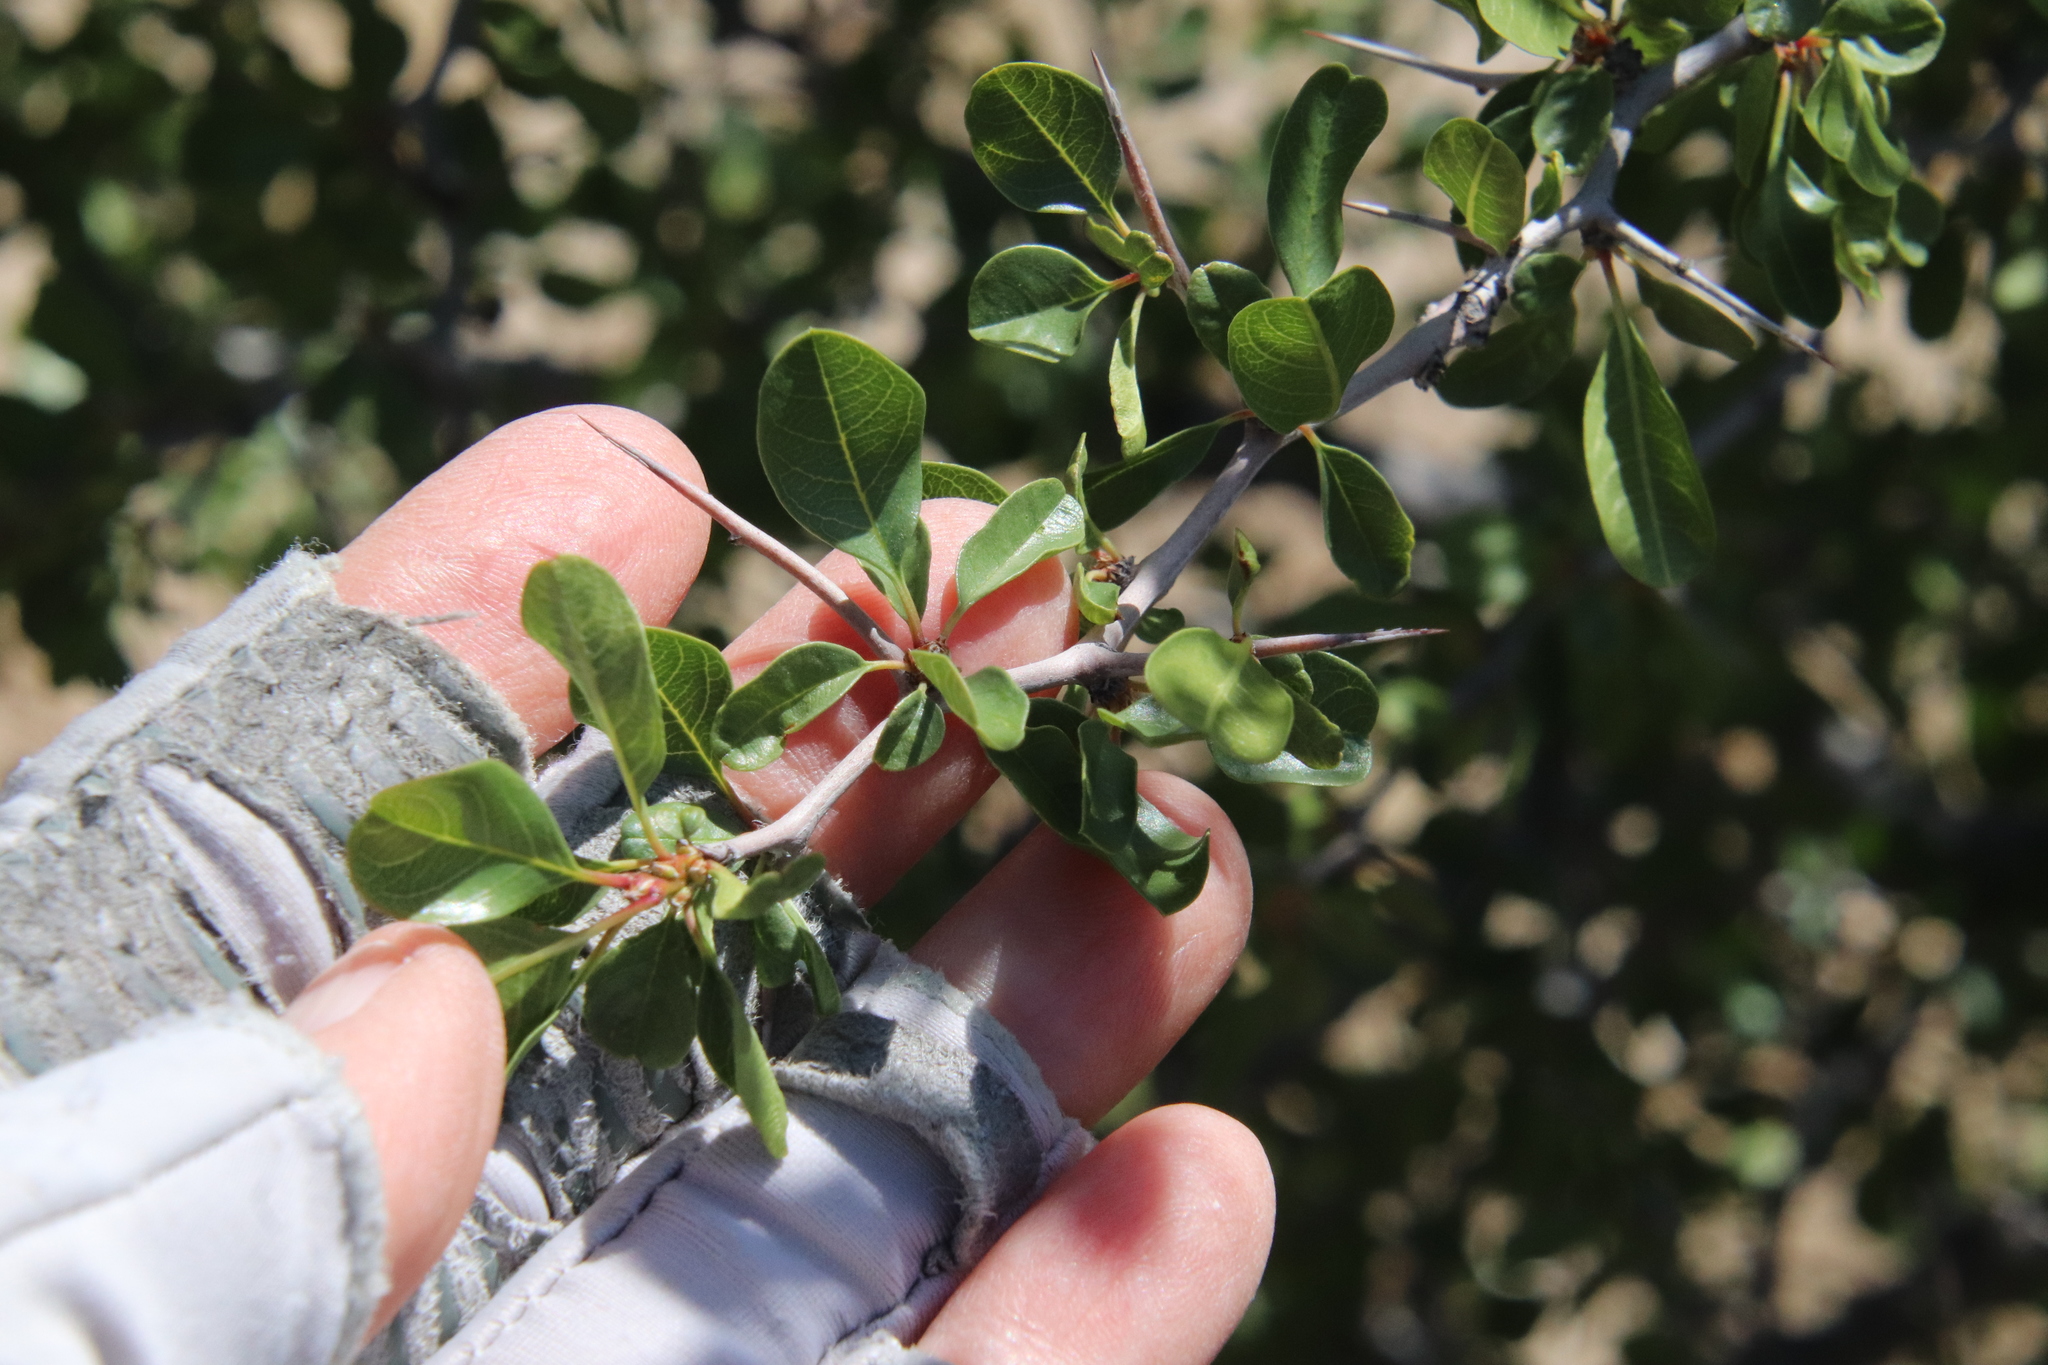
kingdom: Plantae
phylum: Tracheophyta
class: Magnoliopsida
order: Rosales
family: Rhamnaceae
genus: Pseudoziziphus
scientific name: Pseudoziziphus parryi
